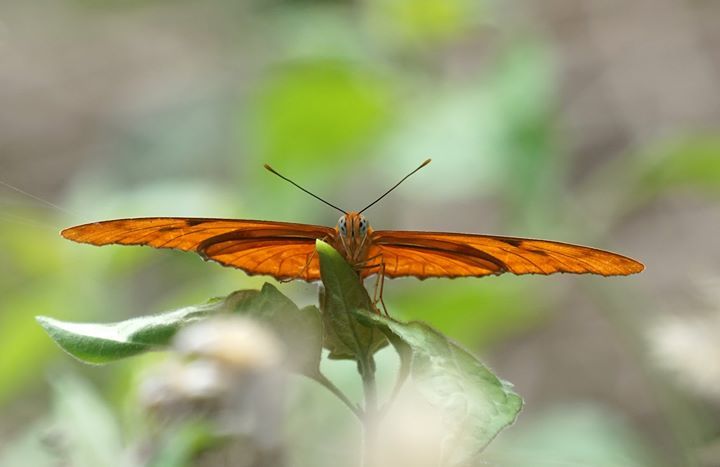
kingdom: Animalia
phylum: Arthropoda
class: Insecta
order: Lepidoptera
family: Nymphalidae
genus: Dryas
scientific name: Dryas iulia
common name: Flambeau
